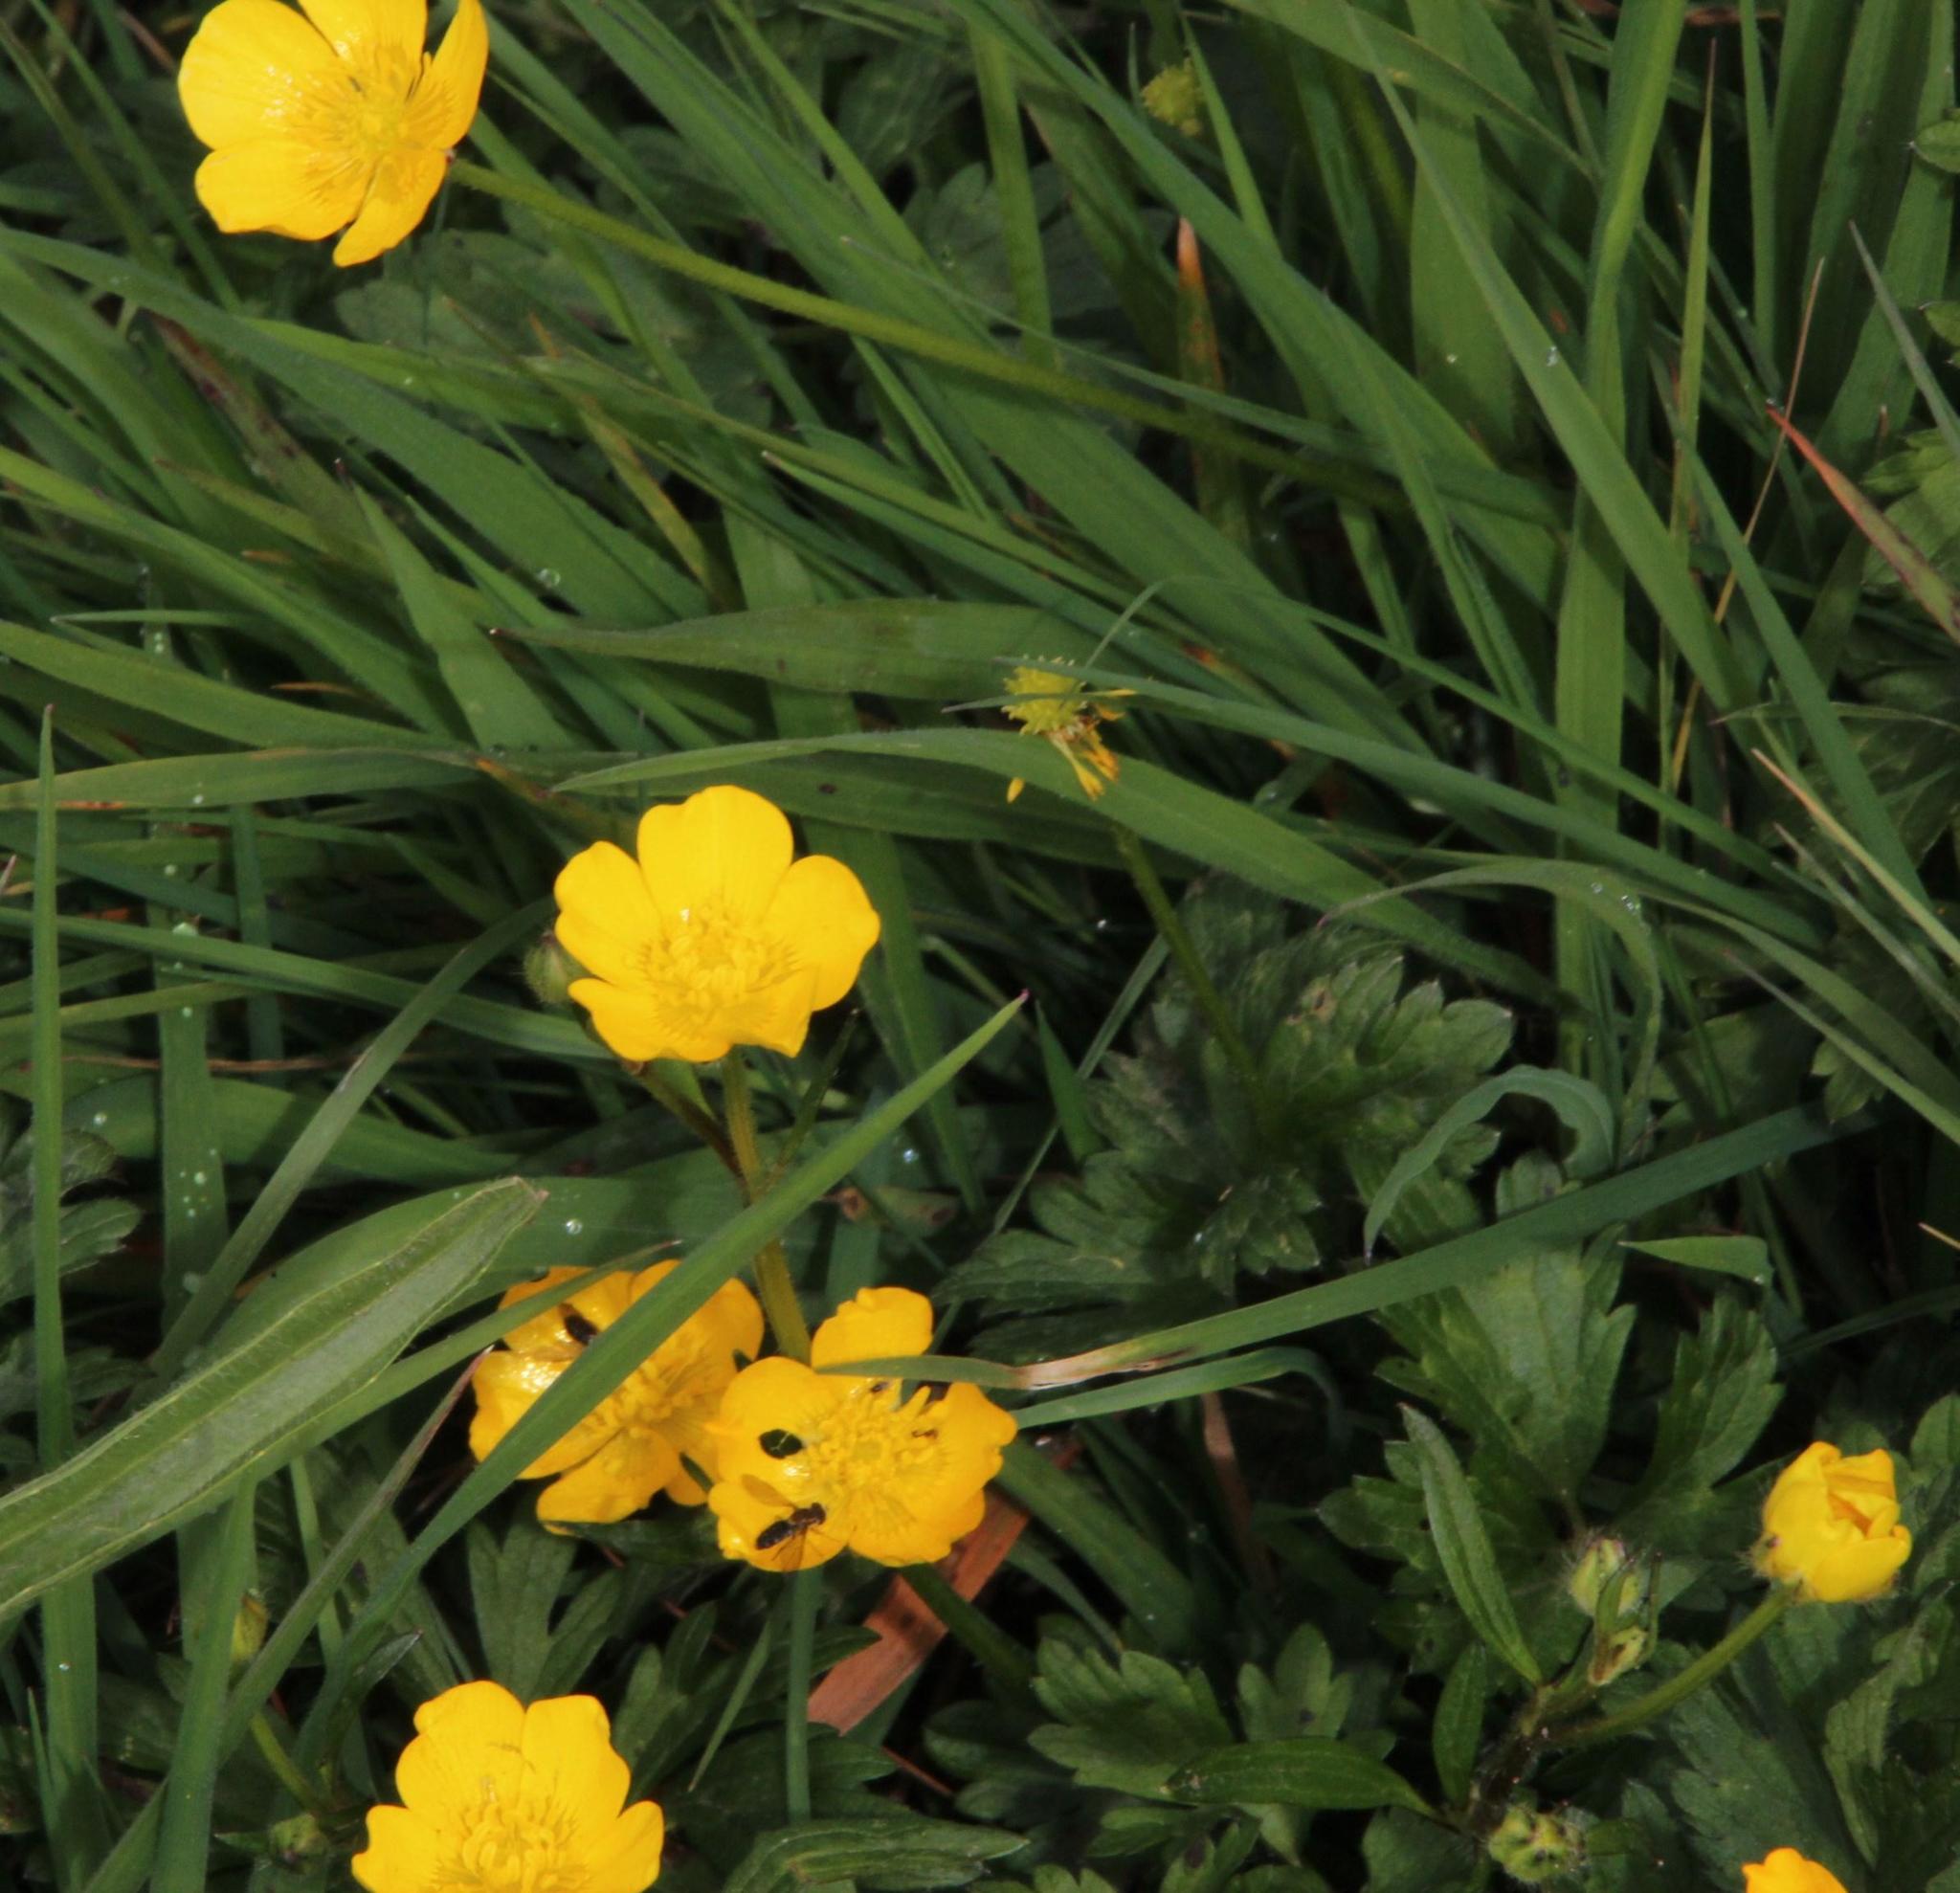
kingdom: Plantae
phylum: Tracheophyta
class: Magnoliopsida
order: Ranunculales
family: Ranunculaceae
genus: Ranunculus
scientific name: Ranunculus repens
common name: Creeping buttercup
